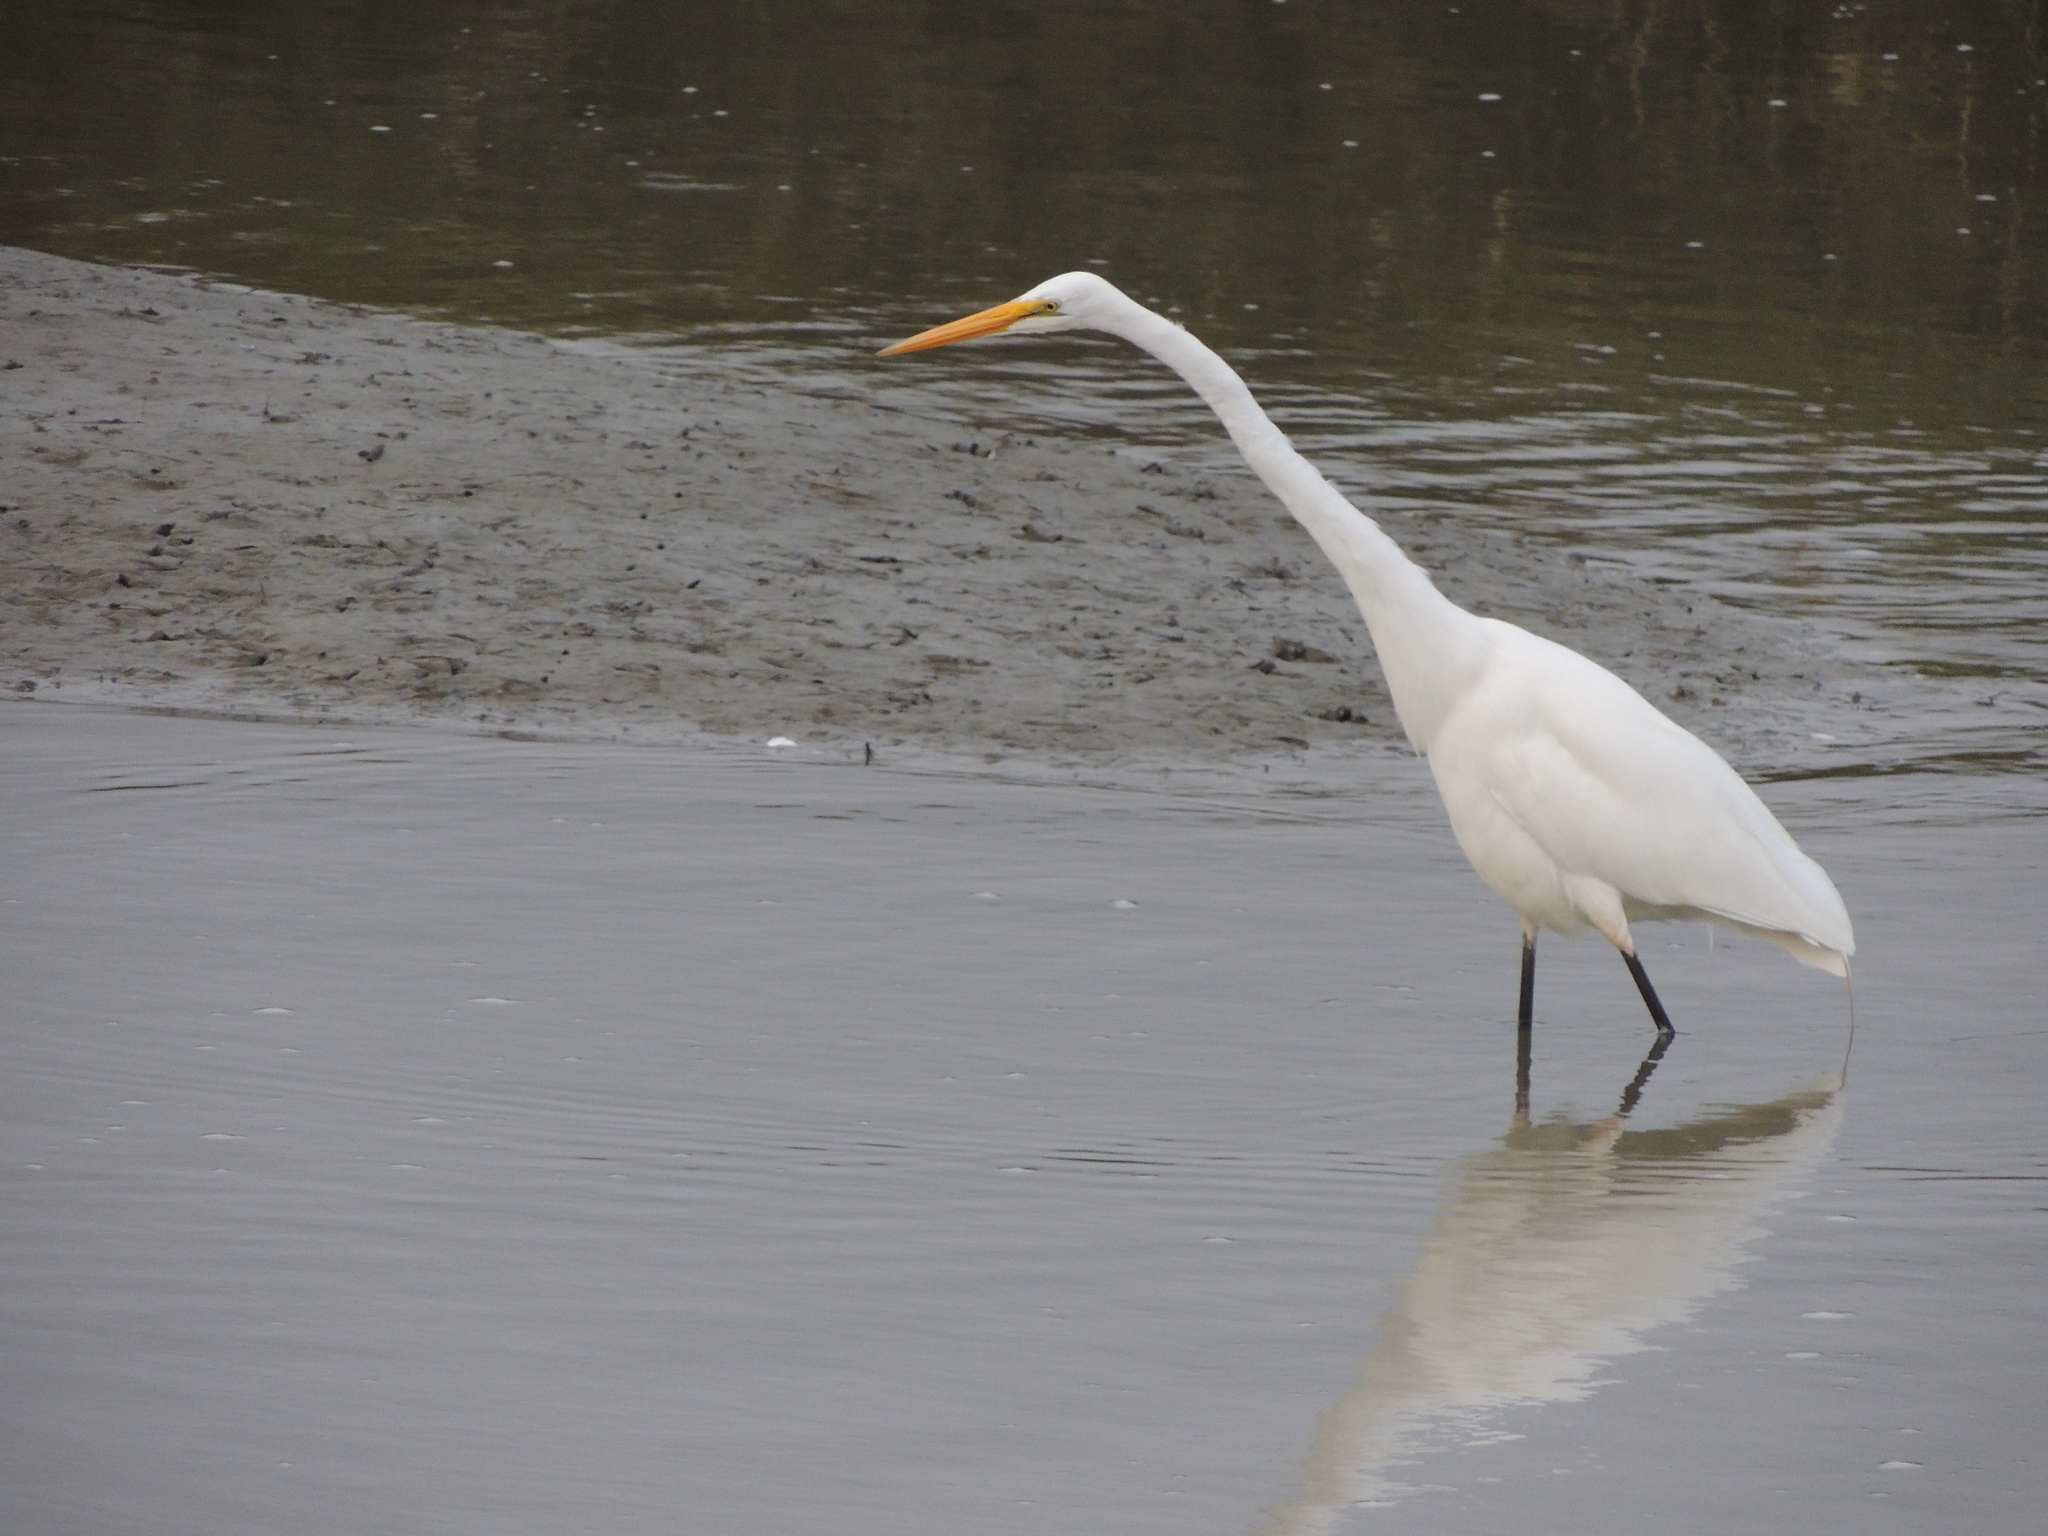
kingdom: Animalia
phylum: Chordata
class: Aves
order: Pelecaniformes
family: Ardeidae
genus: Ardea
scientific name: Ardea alba
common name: Great egret
